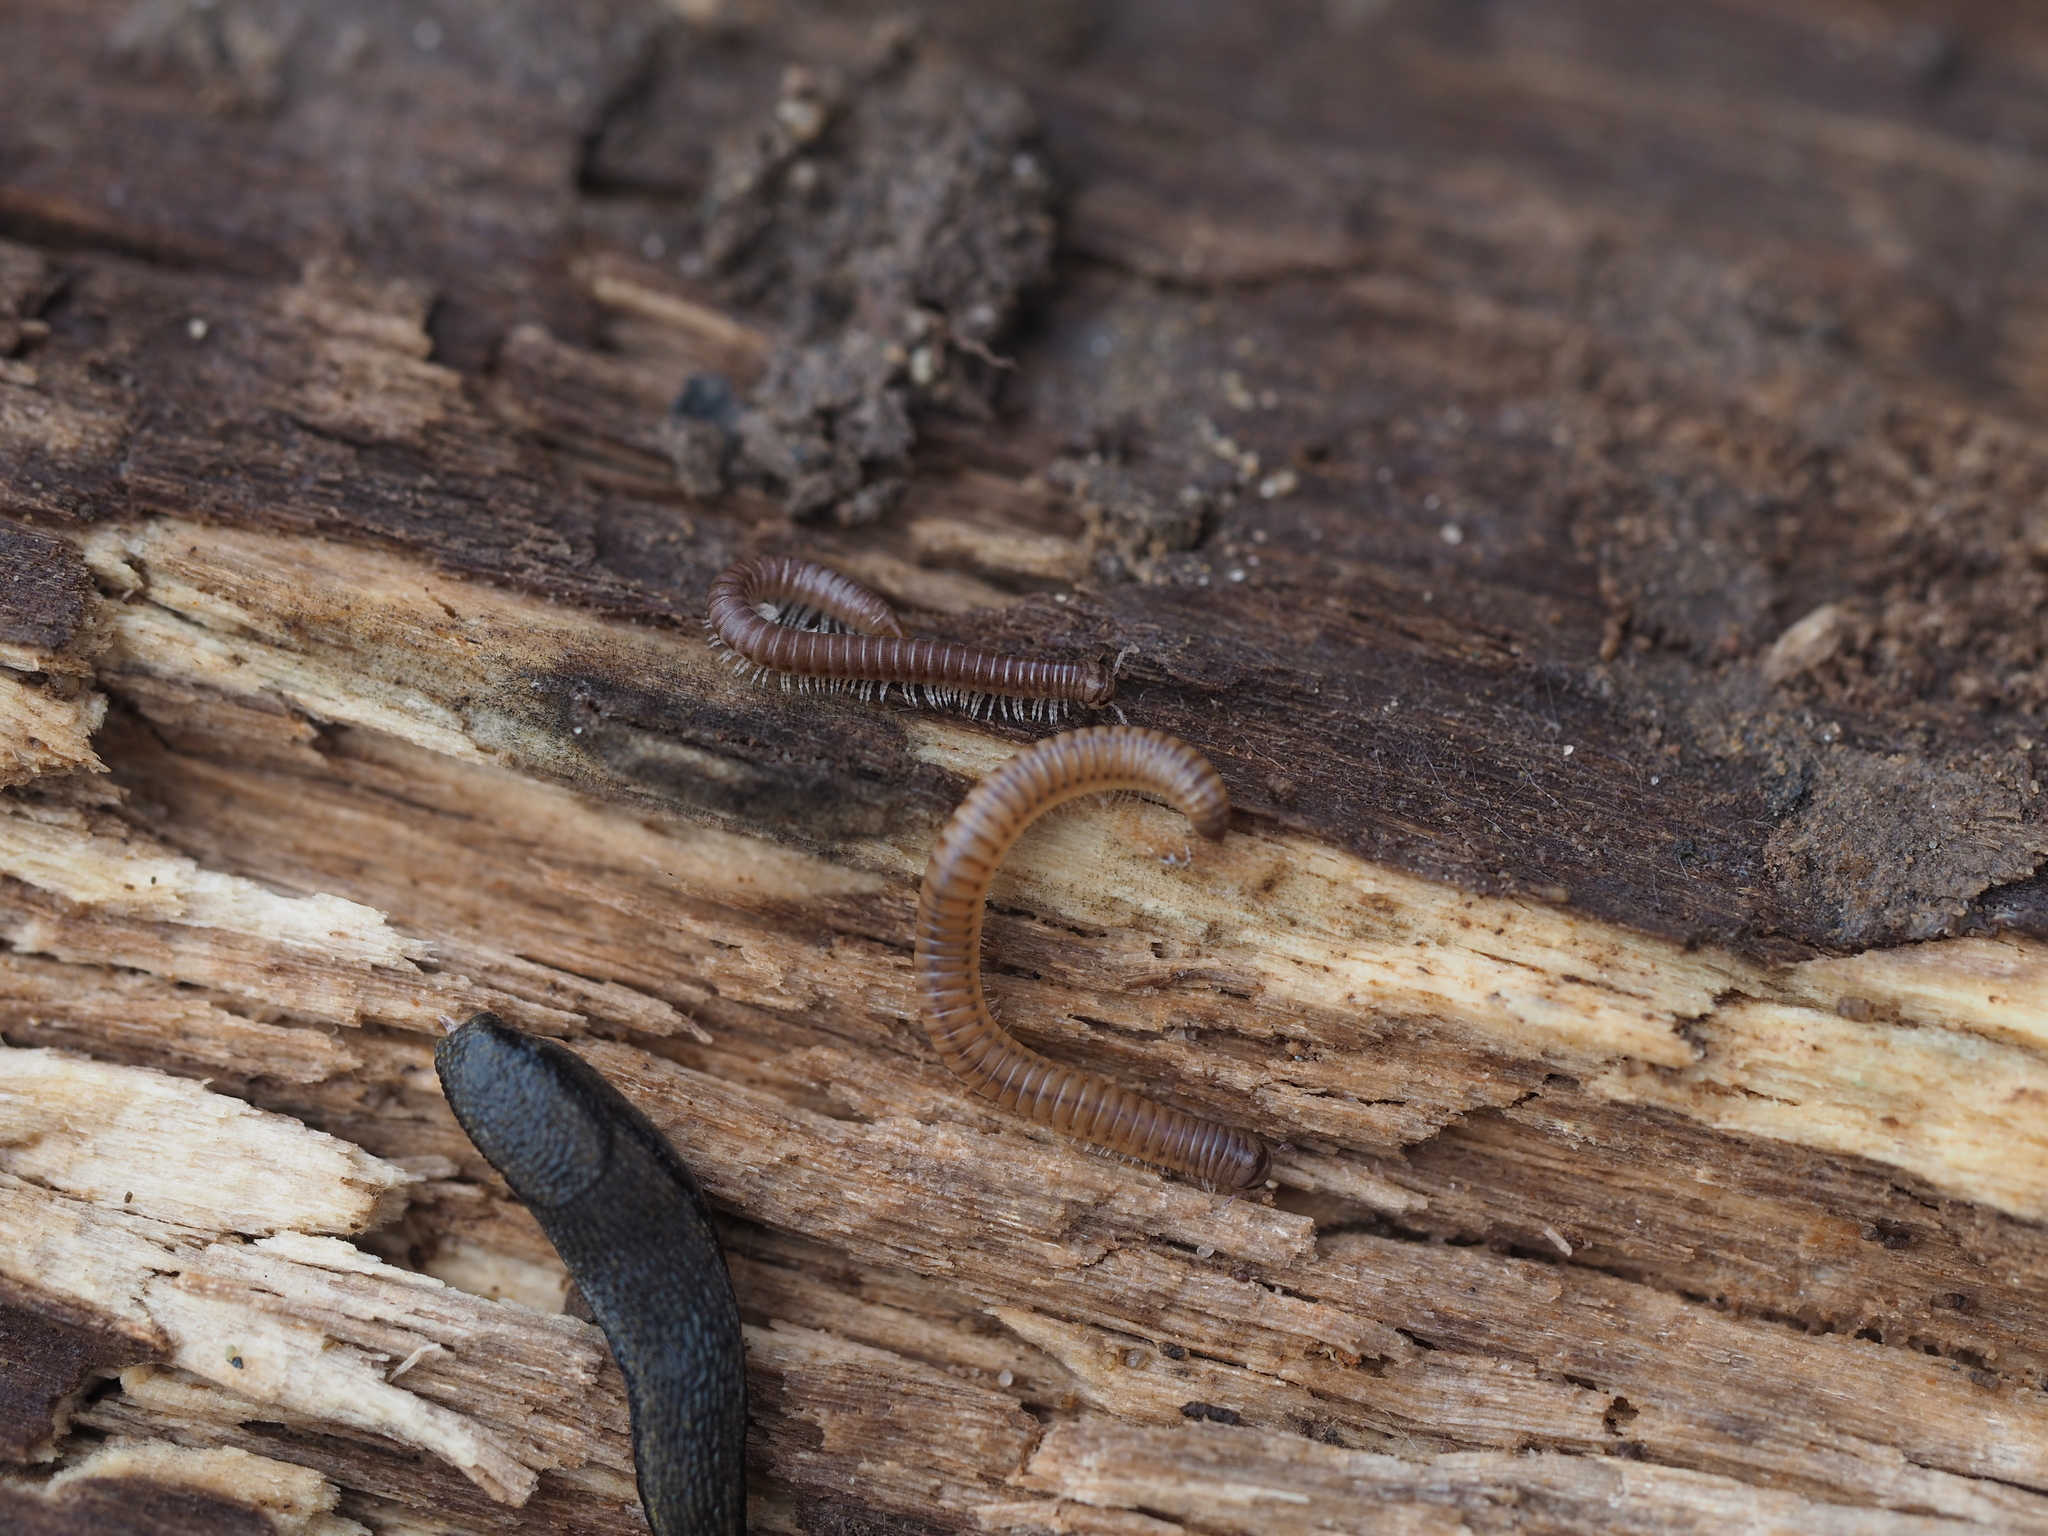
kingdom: Animalia
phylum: Arthropoda
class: Diplopoda
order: Julida
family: Julidae
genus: Cylindroiulus
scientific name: Cylindroiulus punctatus
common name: Blunt-tailed millipede
